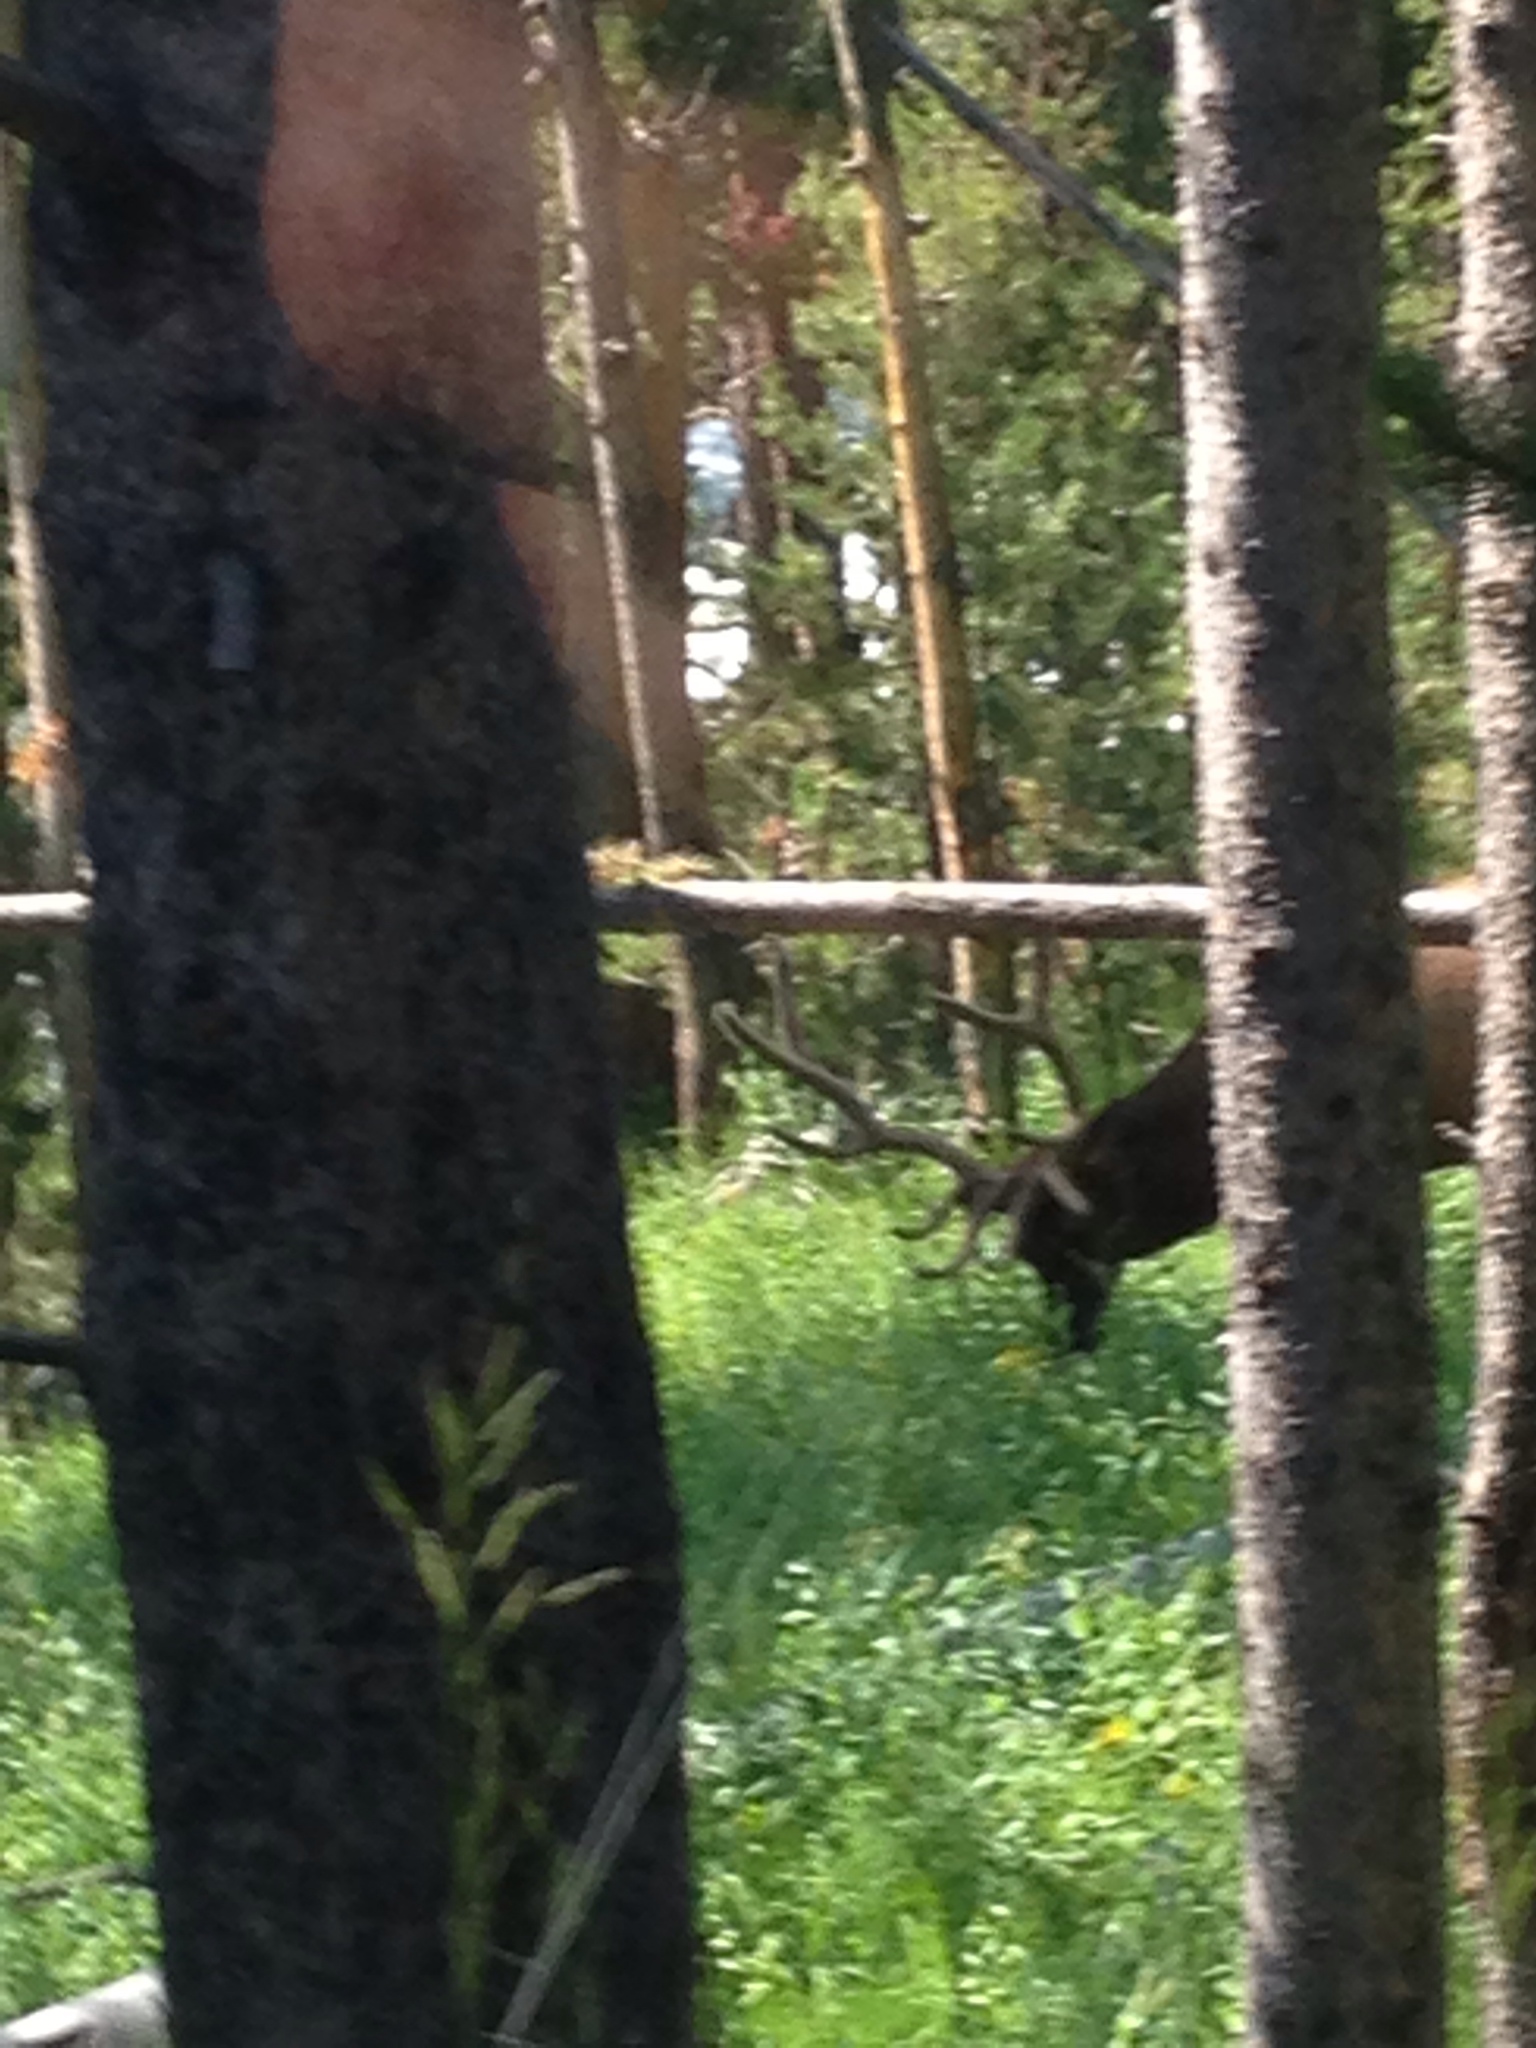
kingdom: Animalia
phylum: Chordata
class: Mammalia
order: Artiodactyla
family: Cervidae
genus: Cervus
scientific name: Cervus elaphus
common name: Red deer
